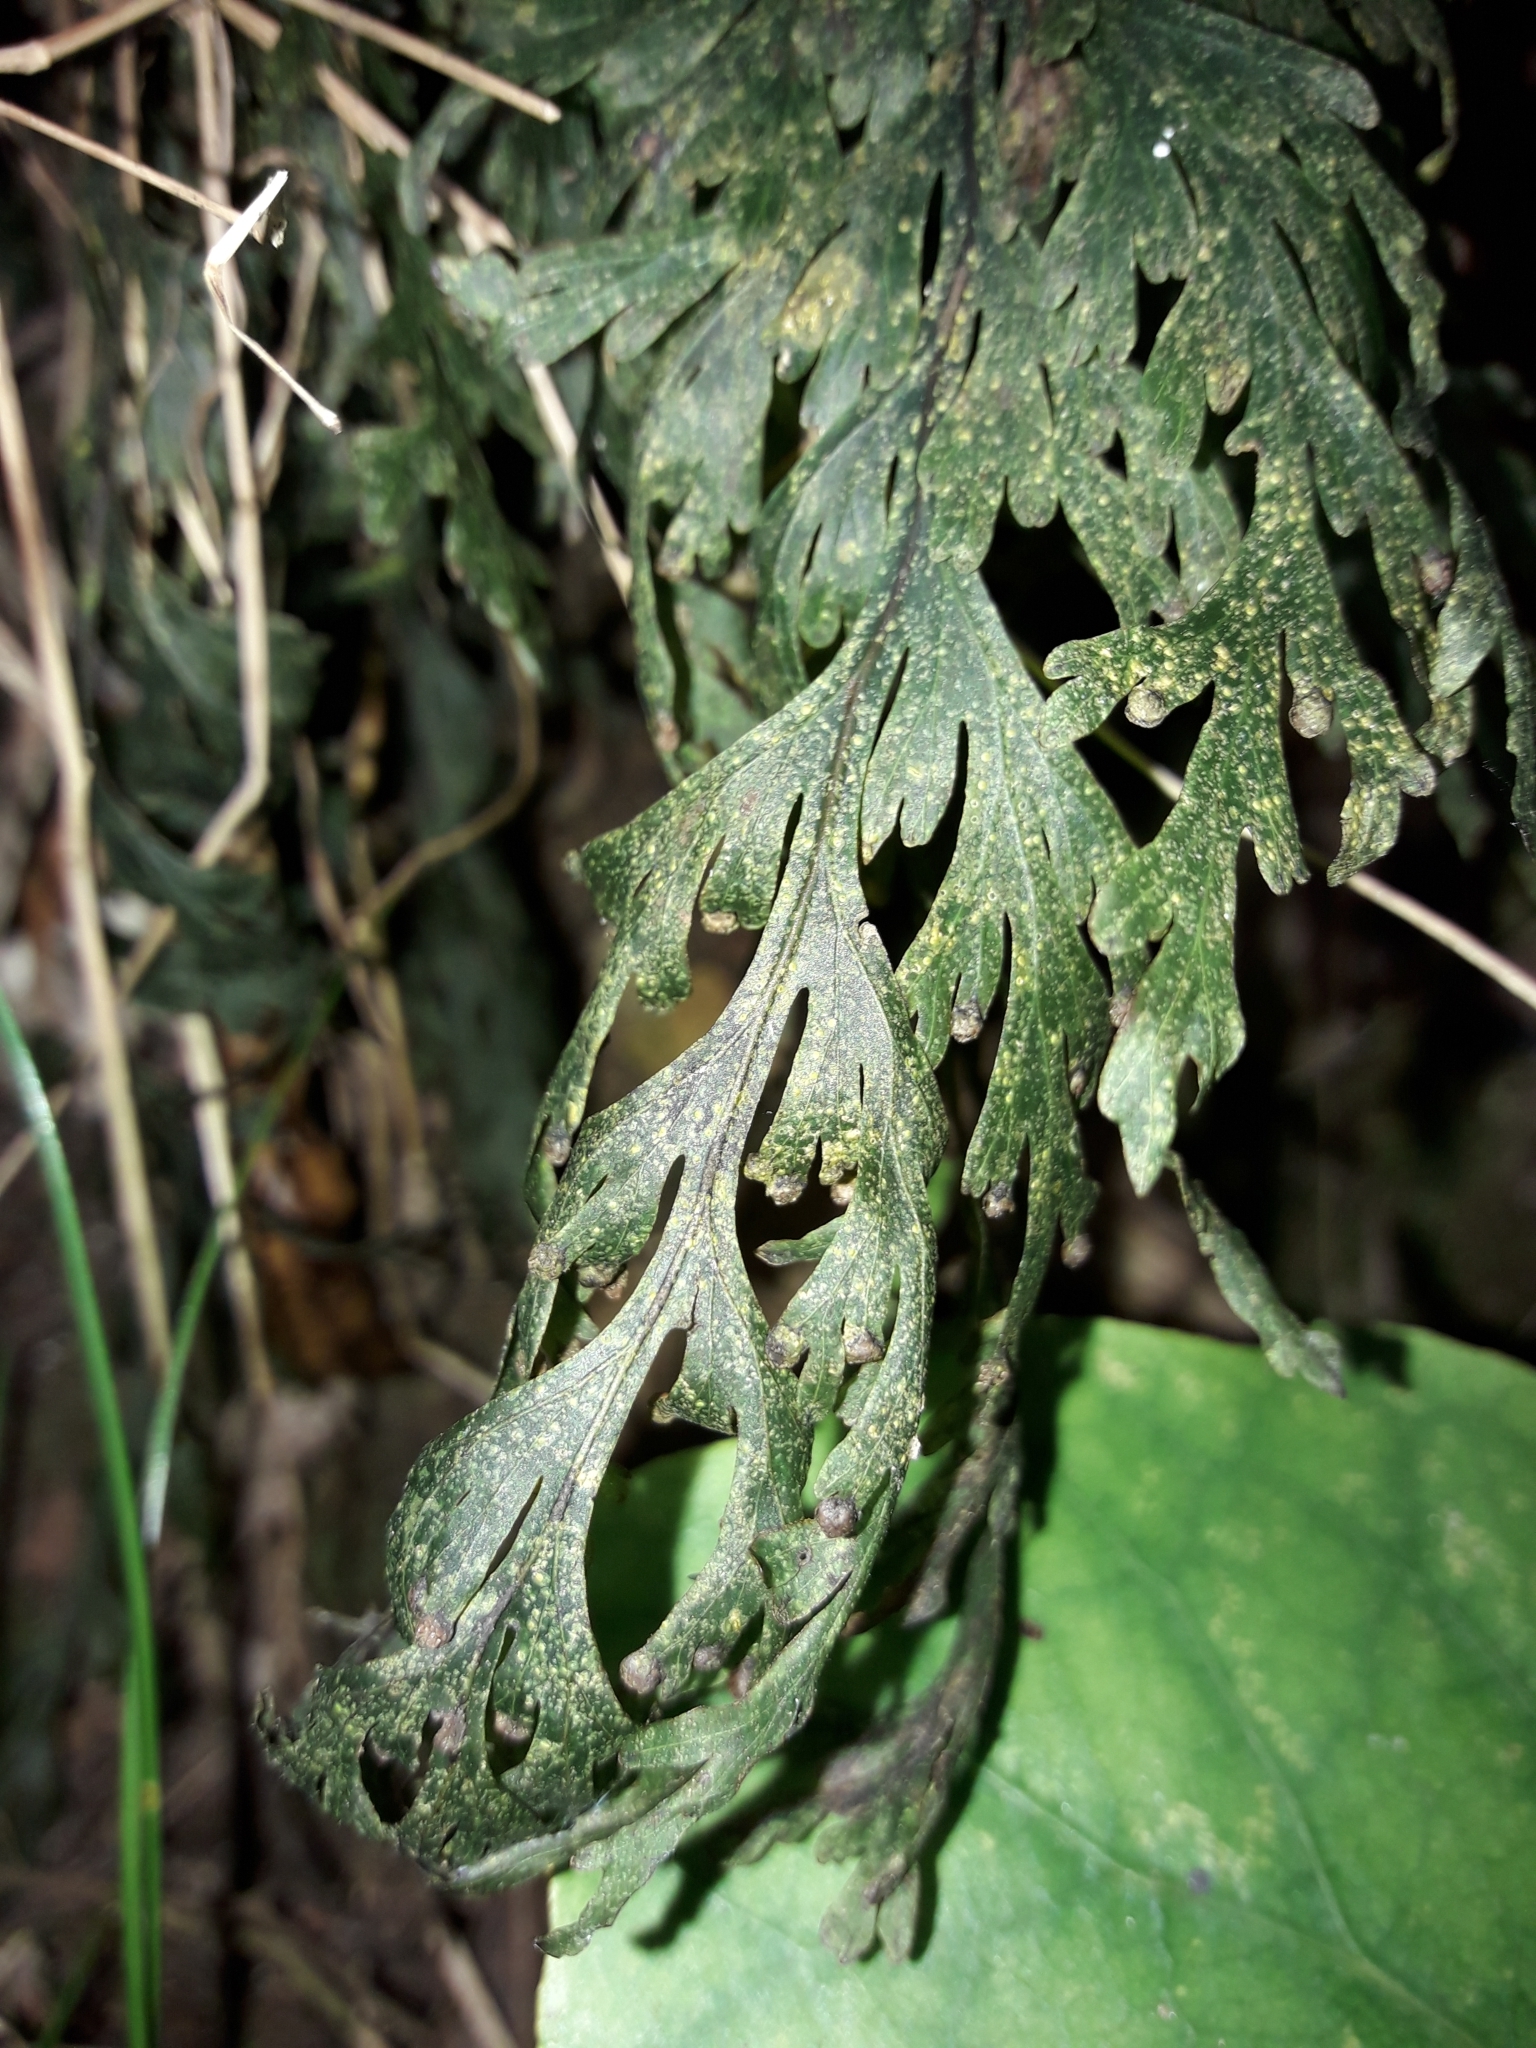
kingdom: Plantae
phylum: Tracheophyta
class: Polypodiopsida
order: Hymenophyllales
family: Hymenophyllaceae
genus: Hymenophyllum
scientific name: Hymenophyllum dilatatum
